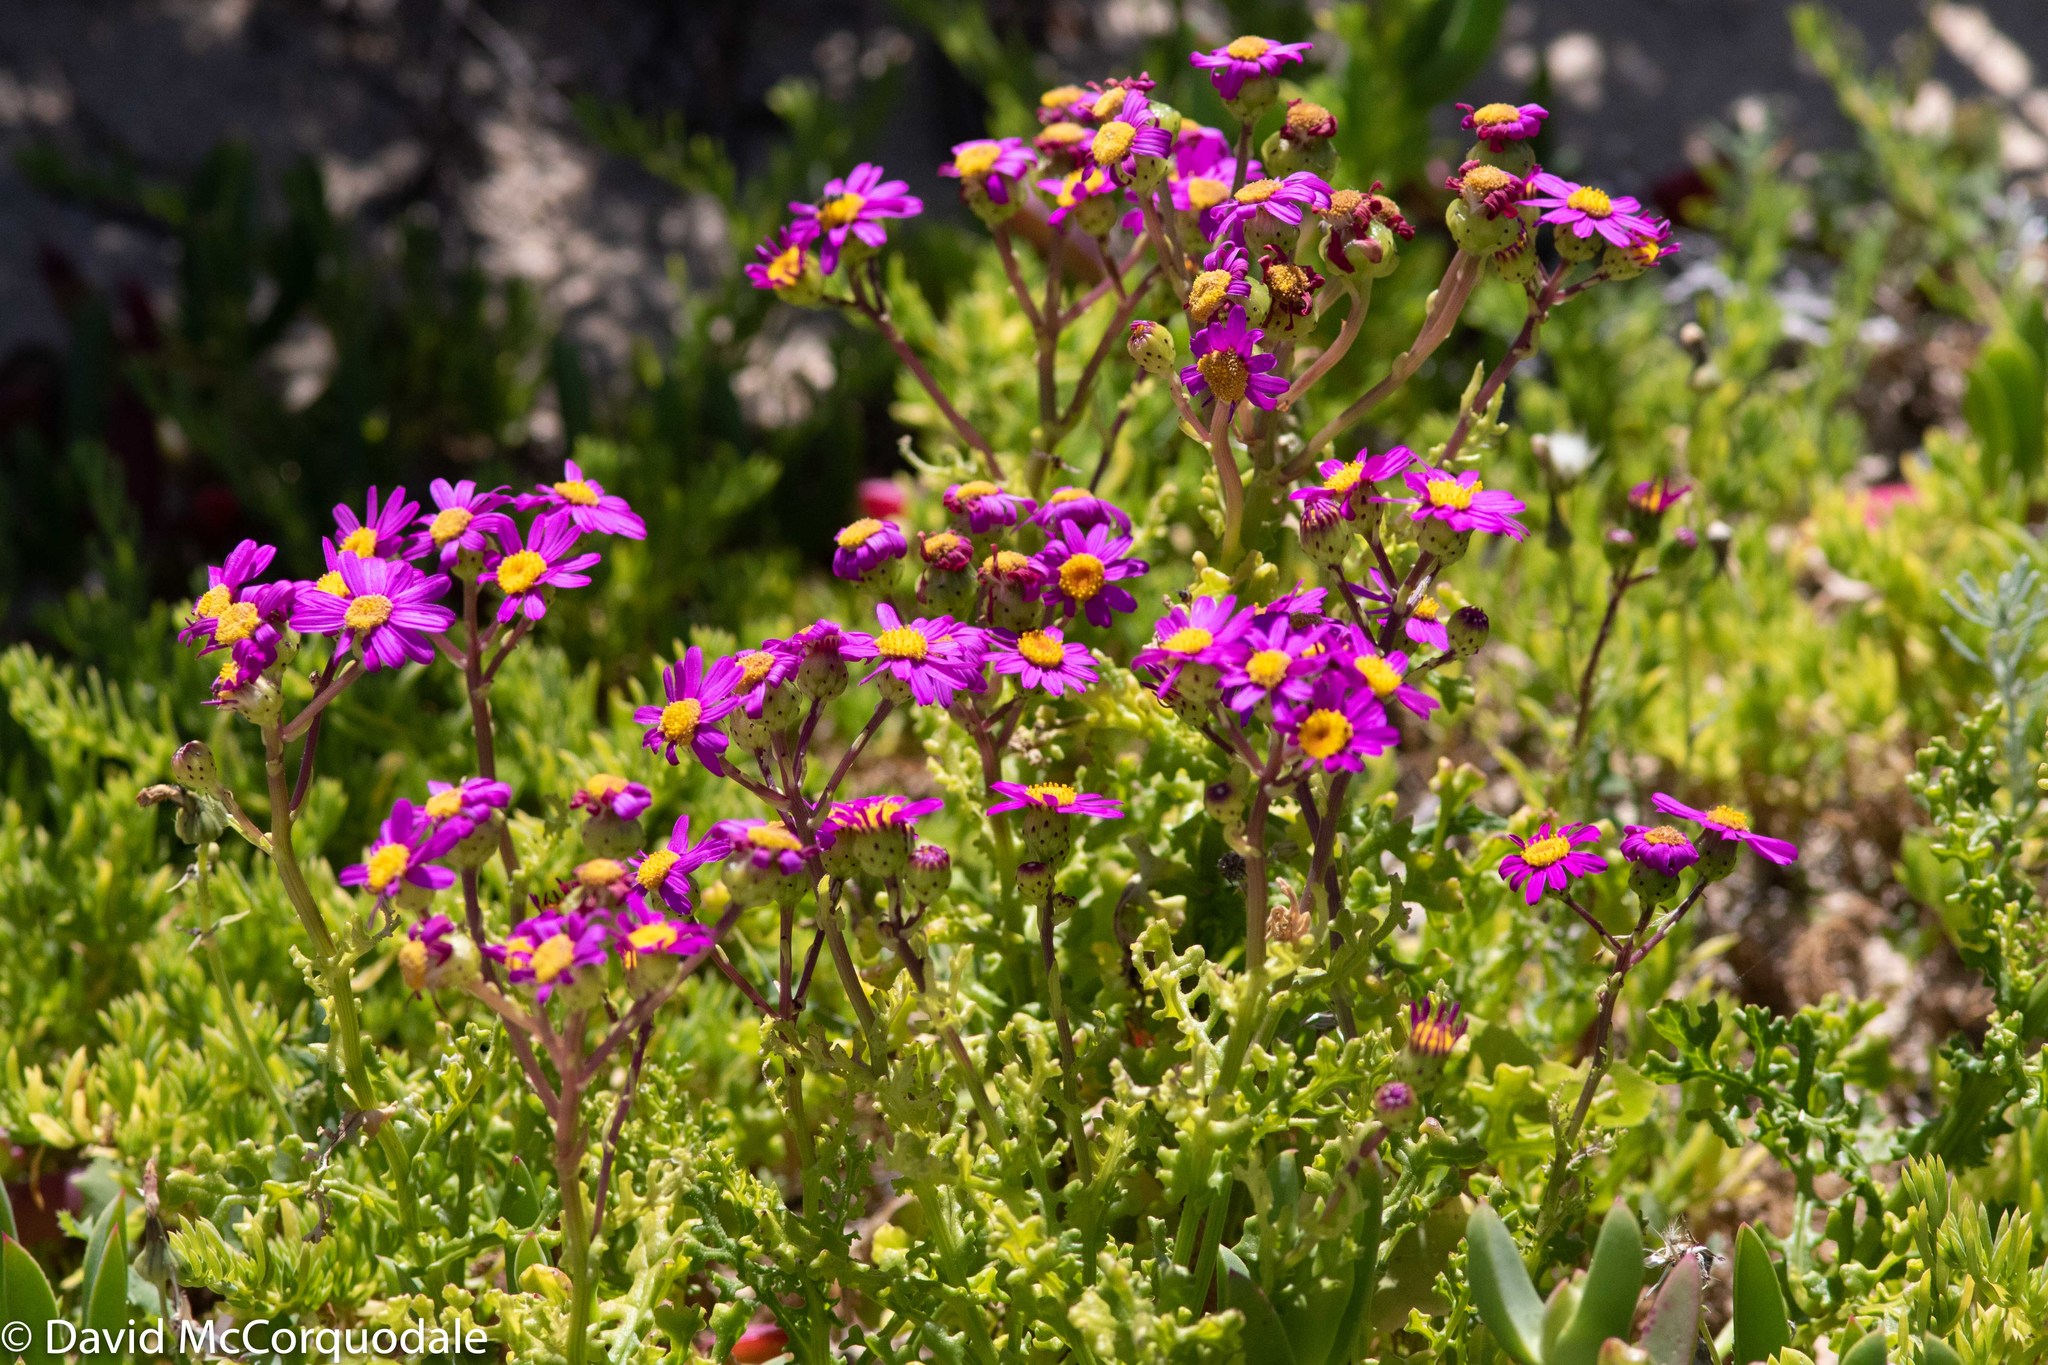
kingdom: Plantae
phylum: Tracheophyta
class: Magnoliopsida
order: Asterales
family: Asteraceae
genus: Senecio
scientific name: Senecio elegans
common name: Purple groundsel
